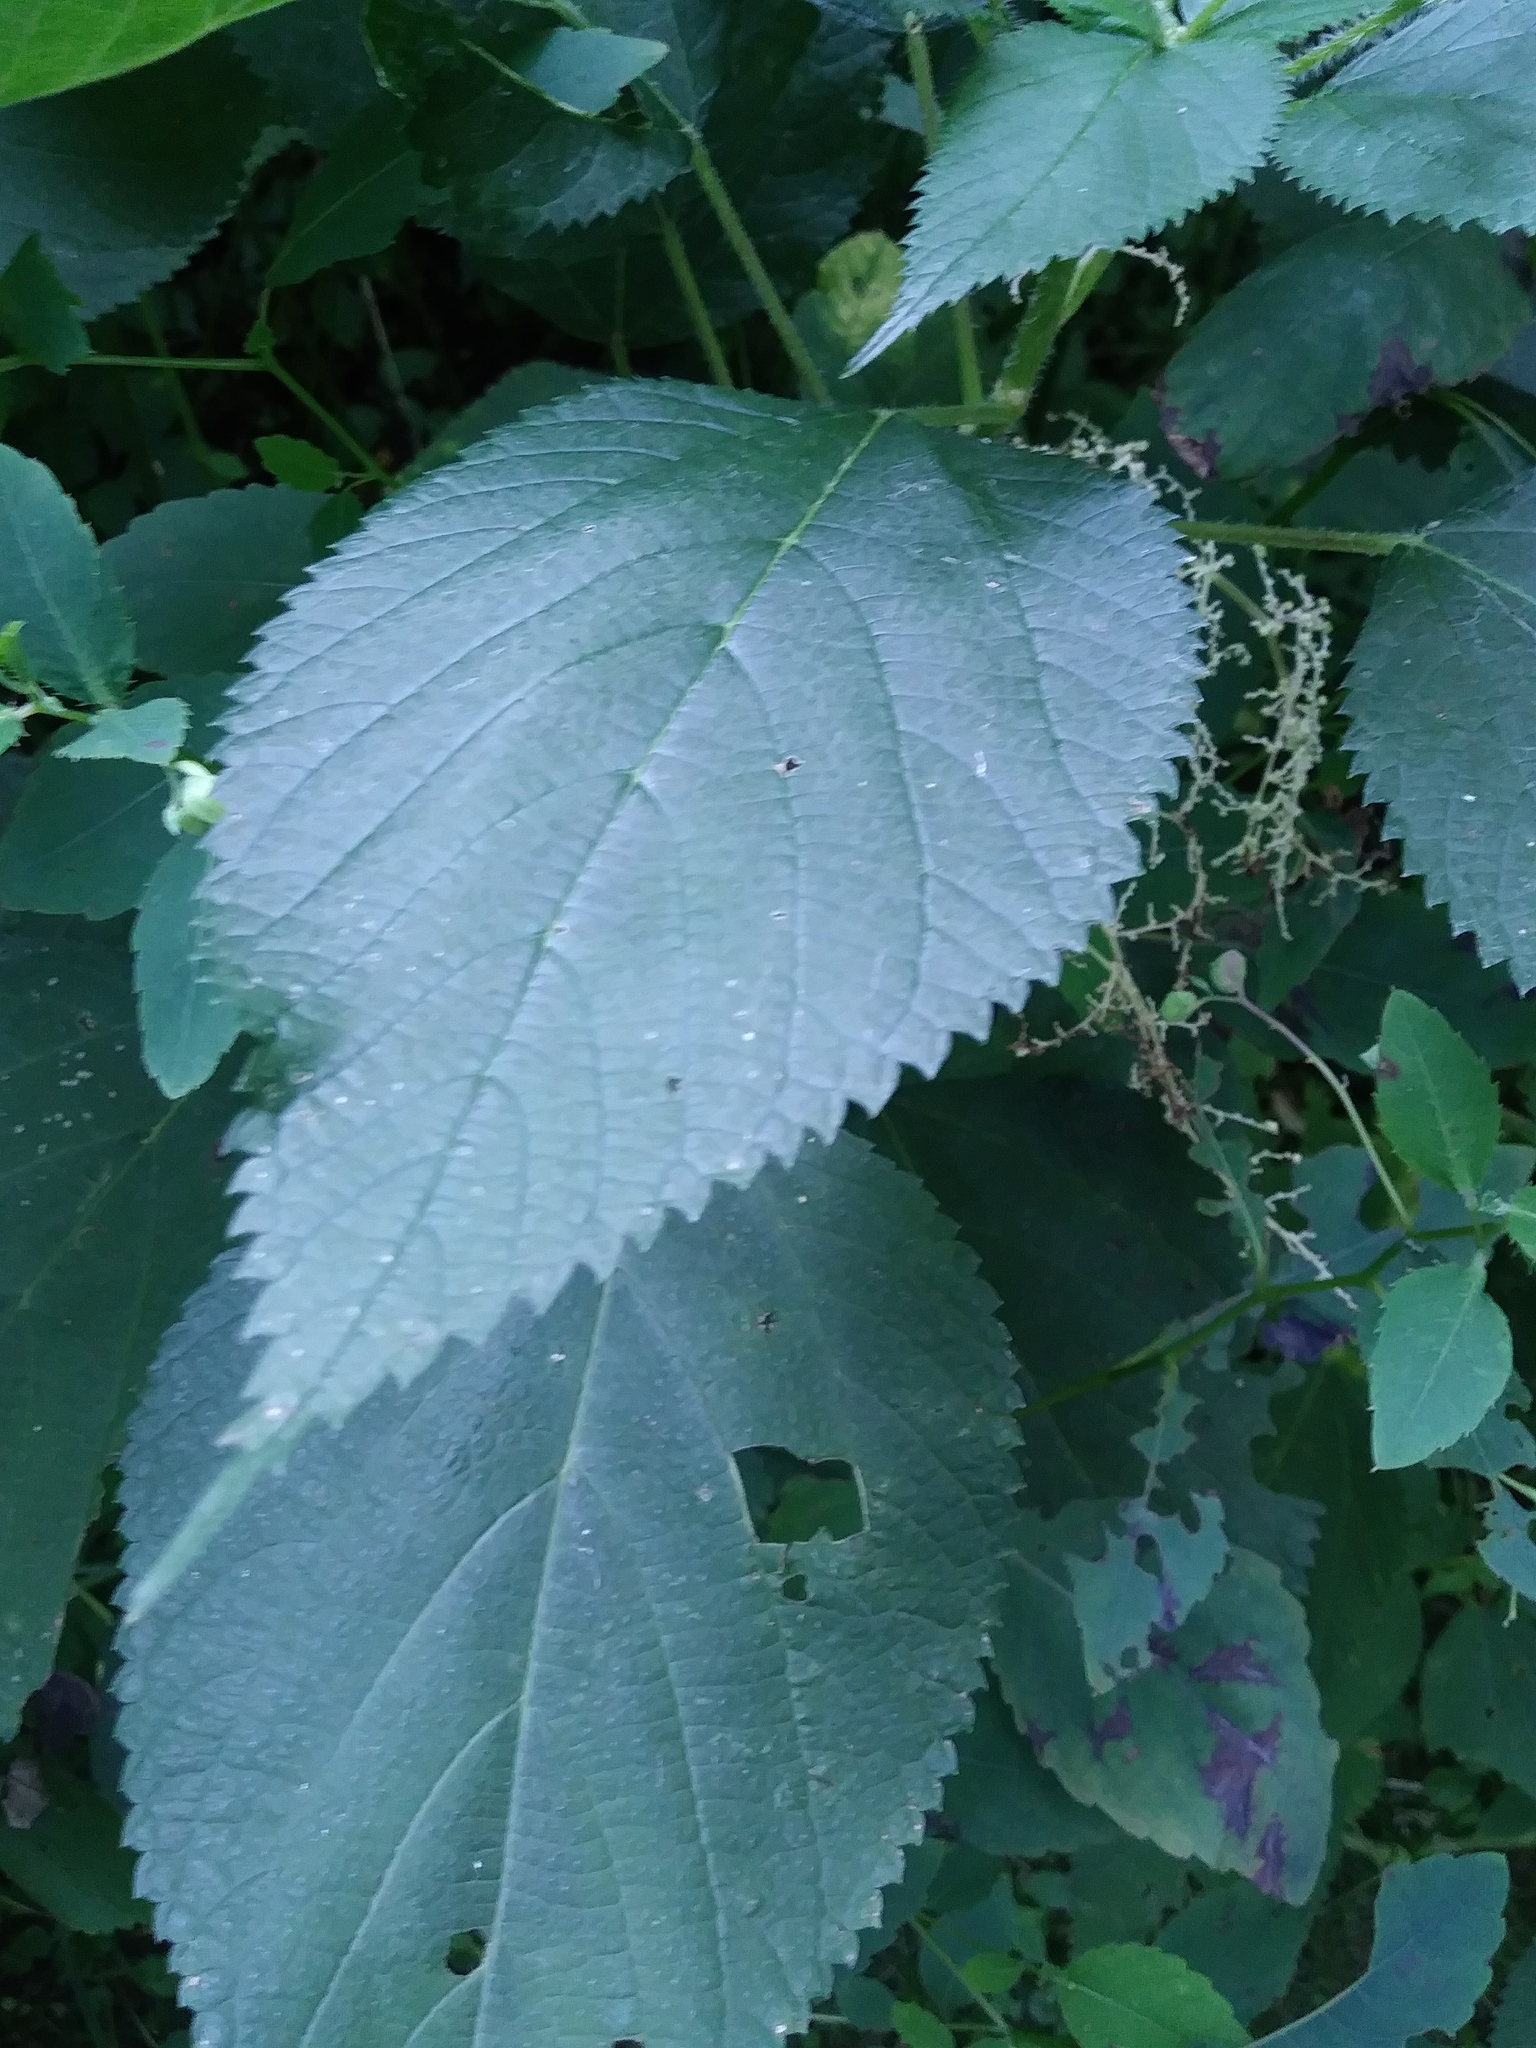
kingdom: Plantae
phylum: Tracheophyta
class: Magnoliopsida
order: Rosales
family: Urticaceae
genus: Laportea
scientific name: Laportea canadensis
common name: Canada nettle
